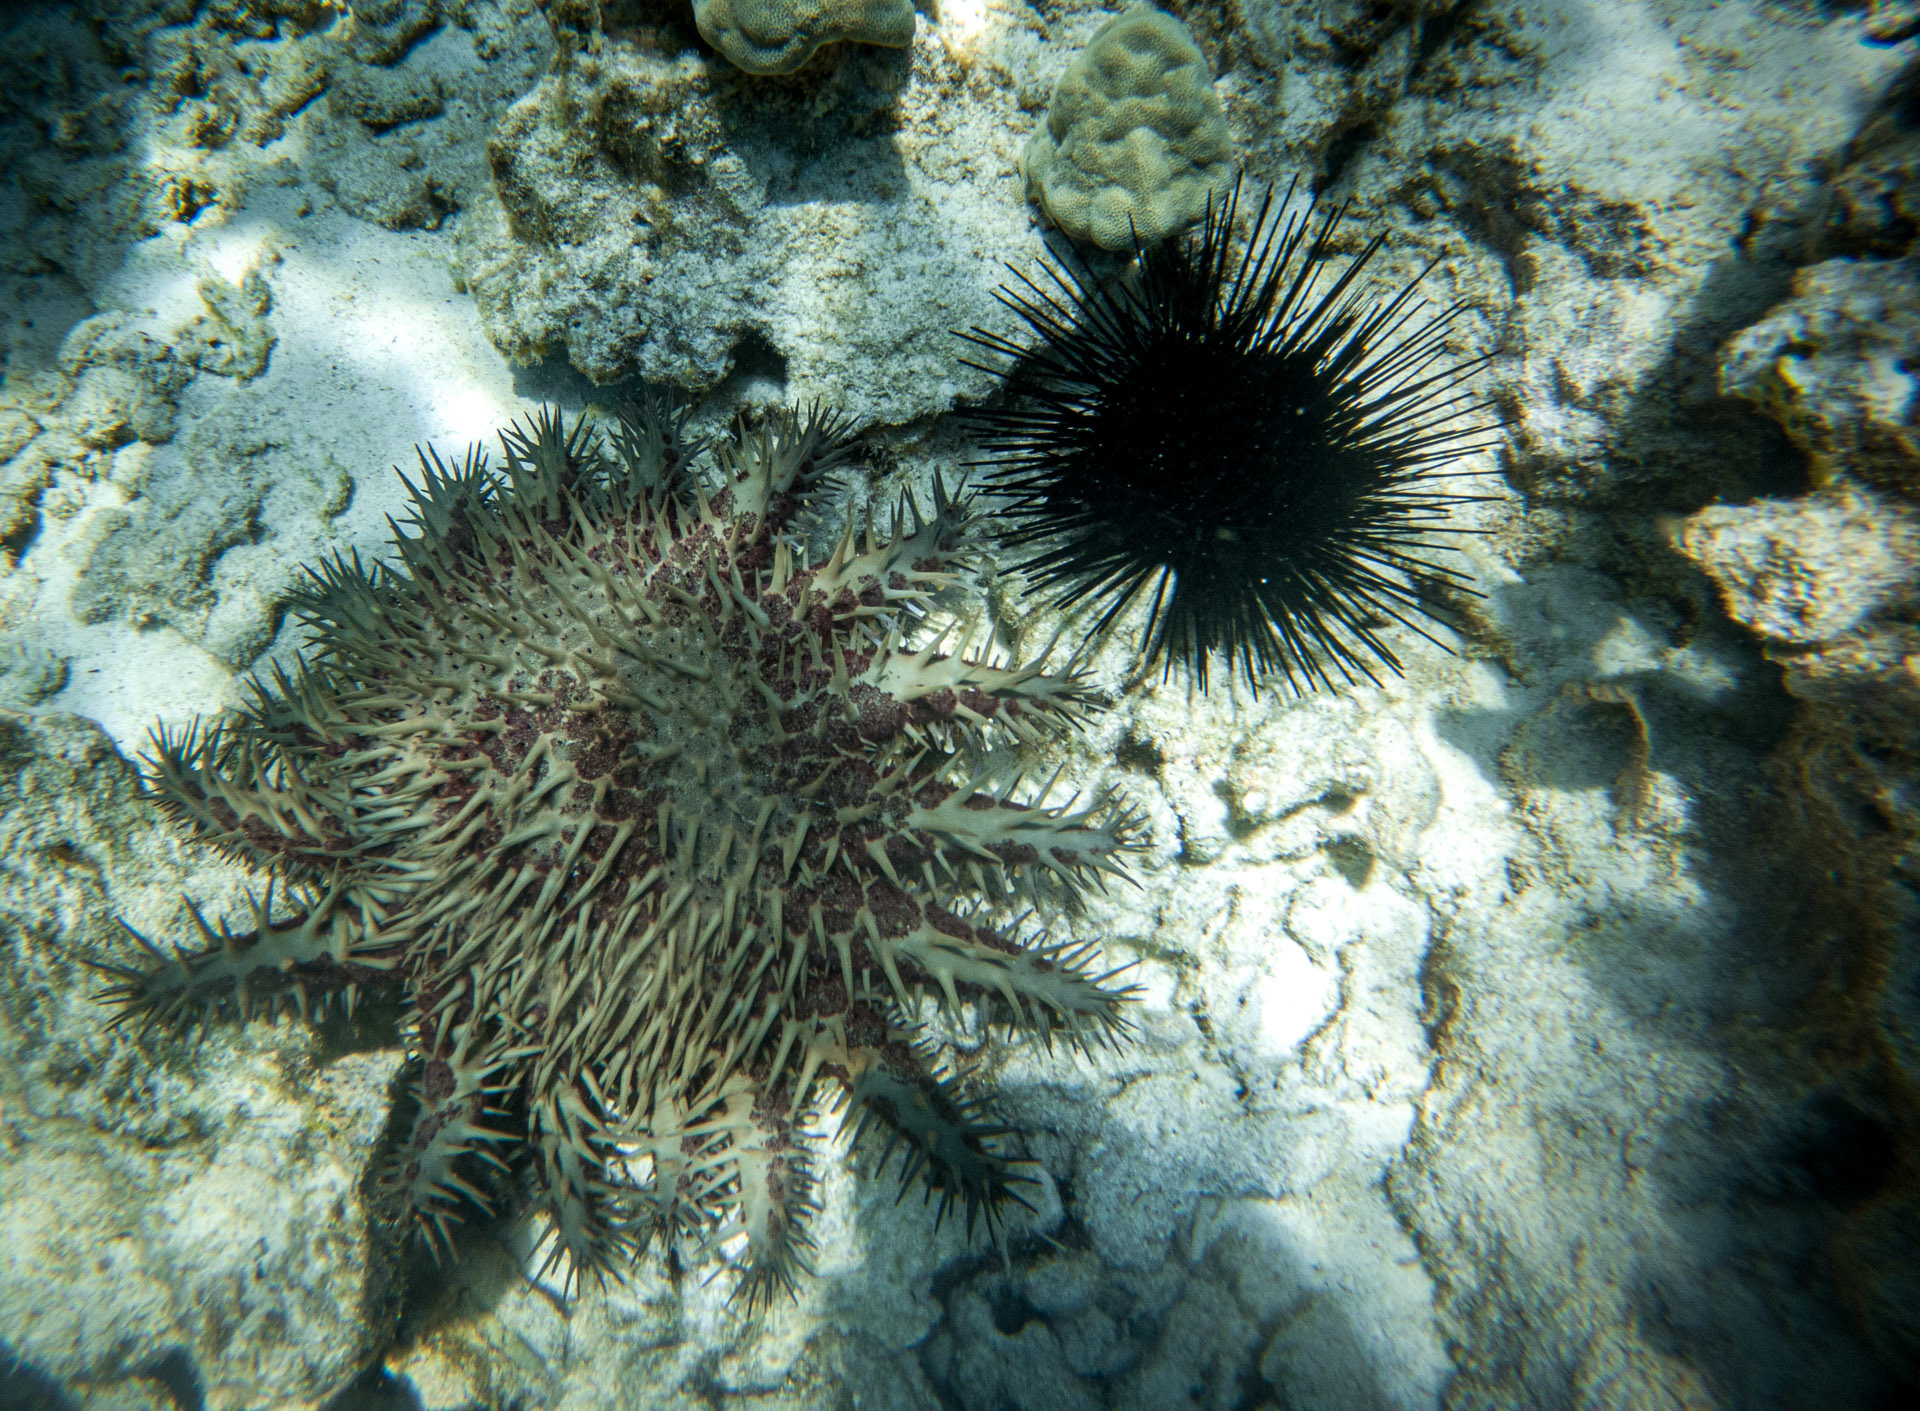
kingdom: Animalia
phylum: Echinodermata
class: Asteroidea
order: Valvatida
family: Acanthasteridae
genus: Acanthaster
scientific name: Acanthaster planci
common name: Crown-of-thorns
